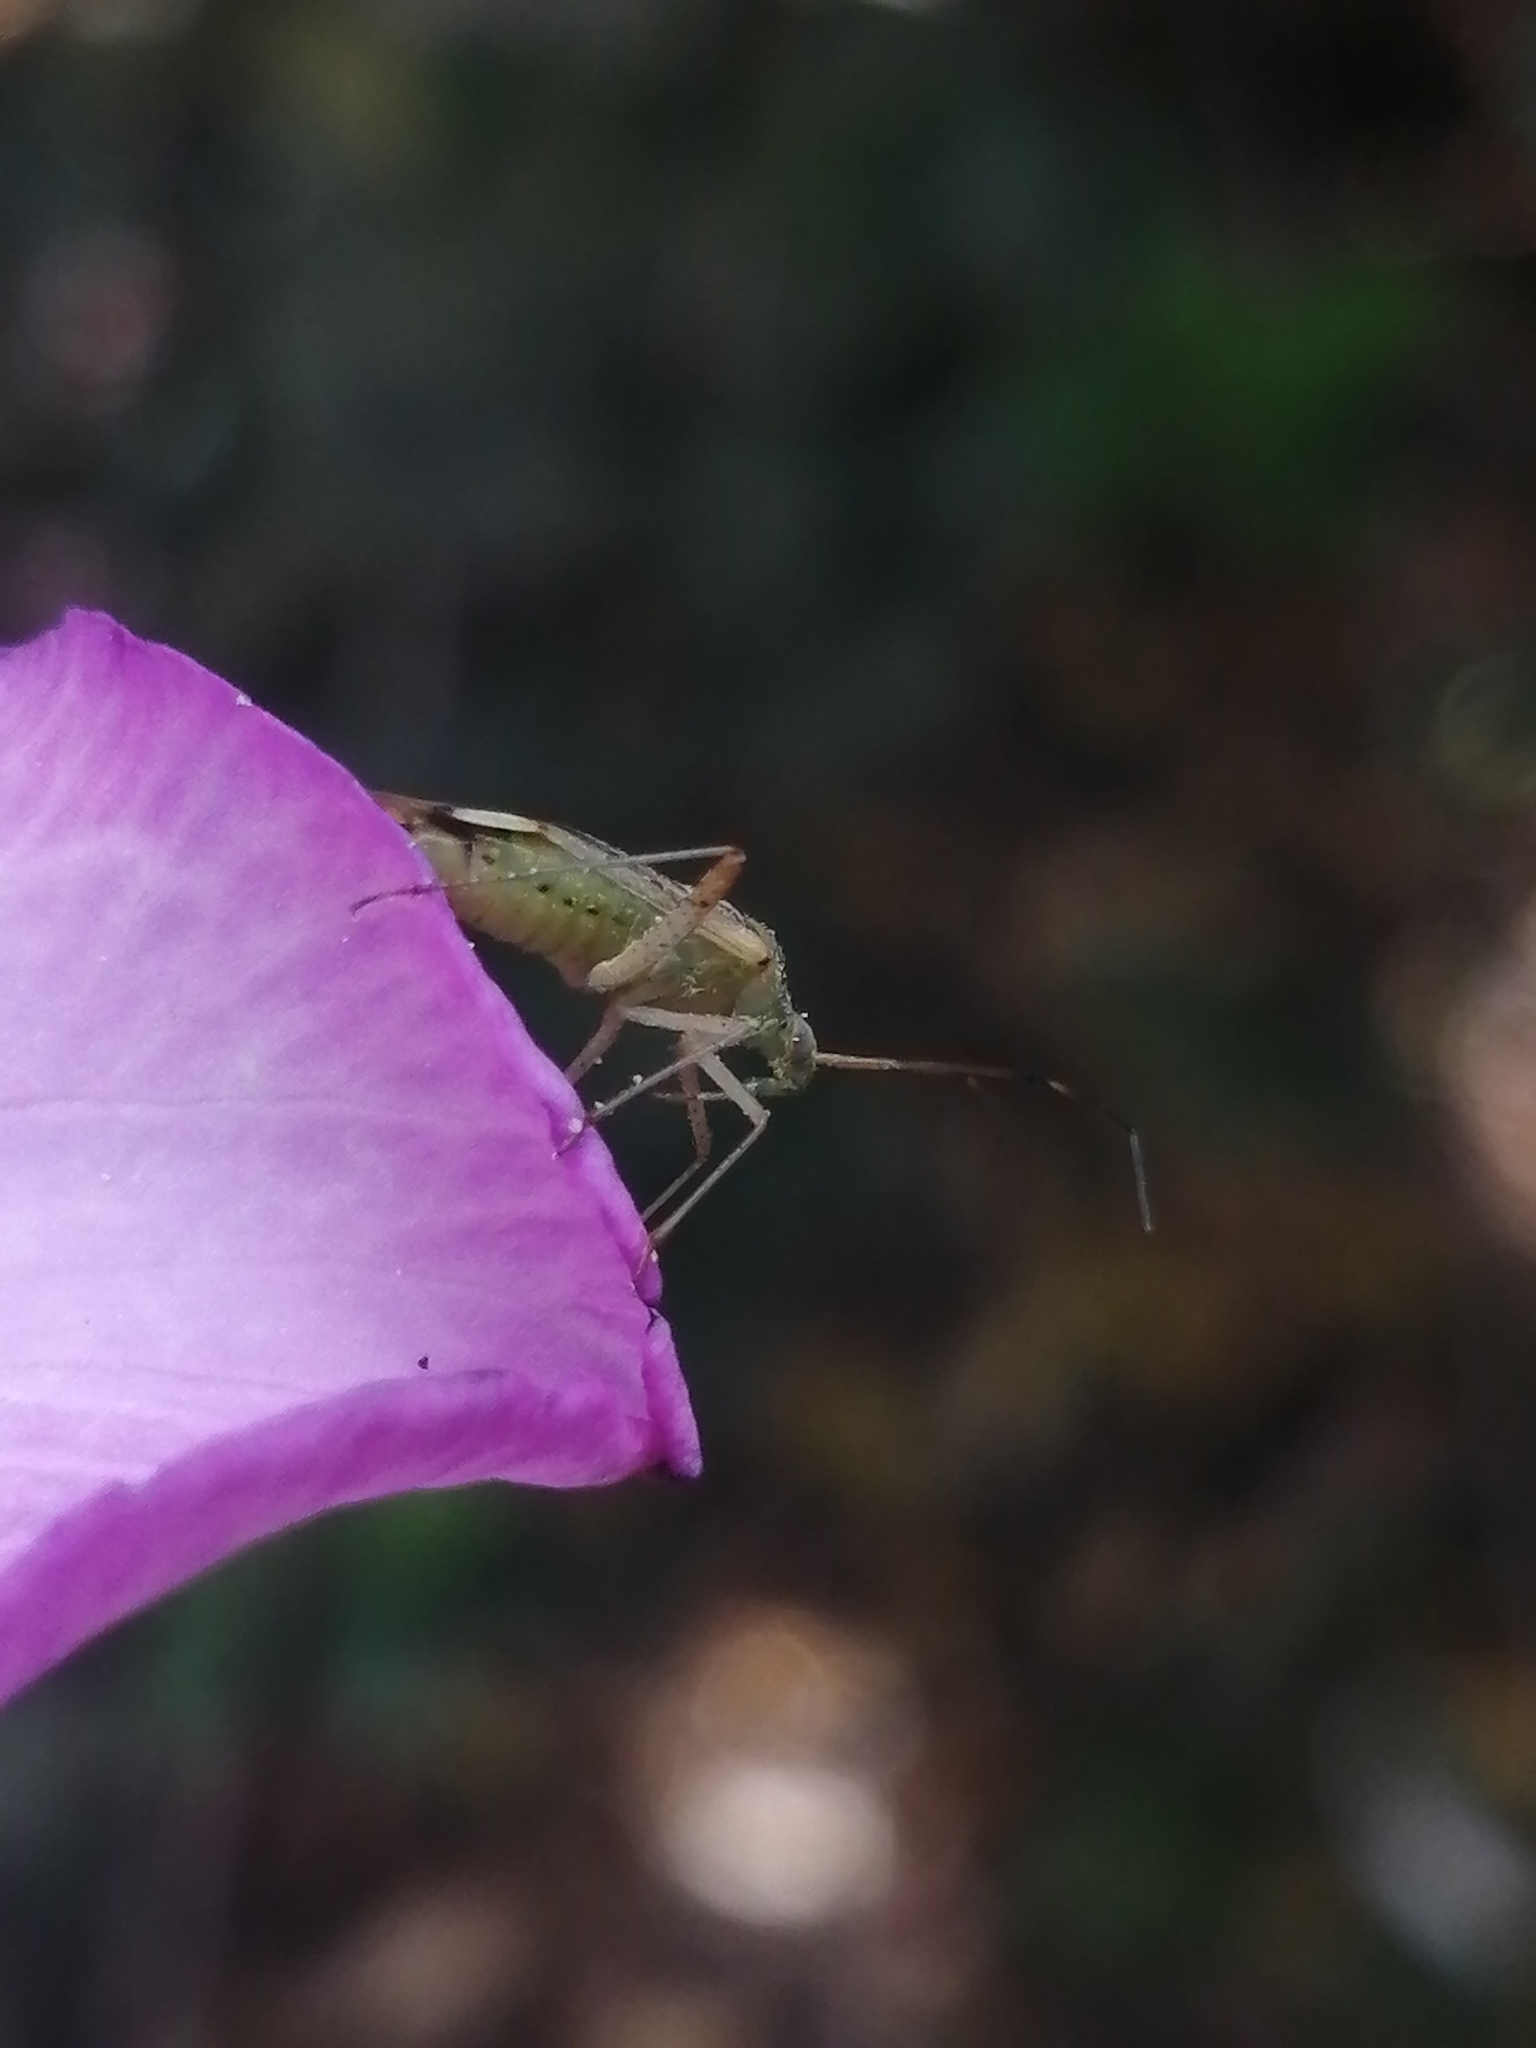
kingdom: Animalia
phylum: Arthropoda
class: Insecta
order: Hemiptera
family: Miridae
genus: Closterotomus
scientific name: Closterotomus putoni
